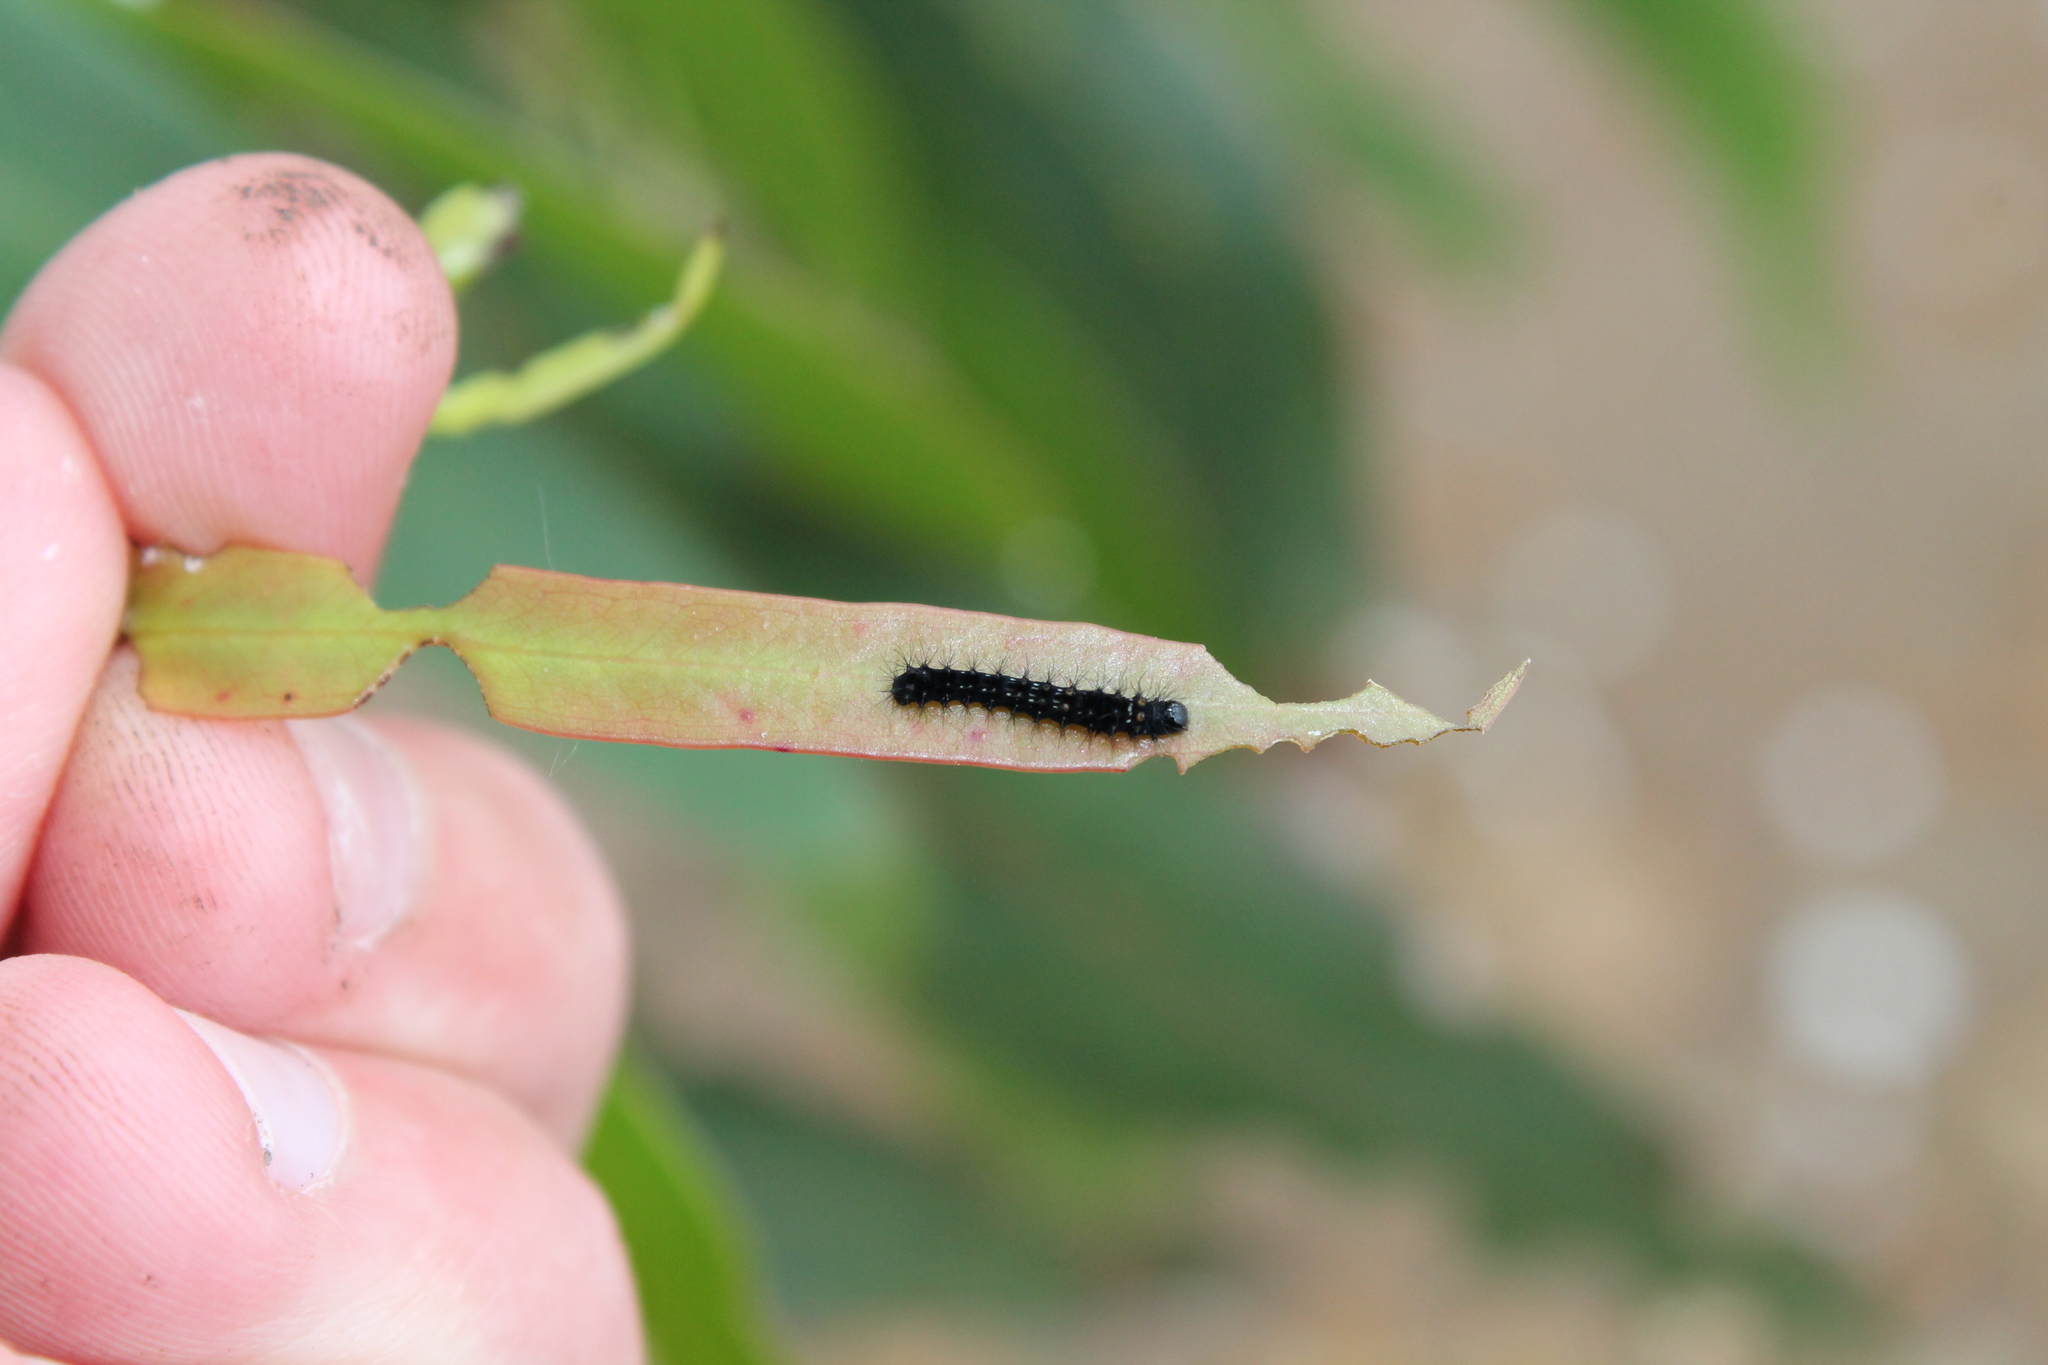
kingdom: Animalia
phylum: Arthropoda
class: Insecta
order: Lepidoptera
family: Saturniidae
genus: Opodiphthera
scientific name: Opodiphthera
